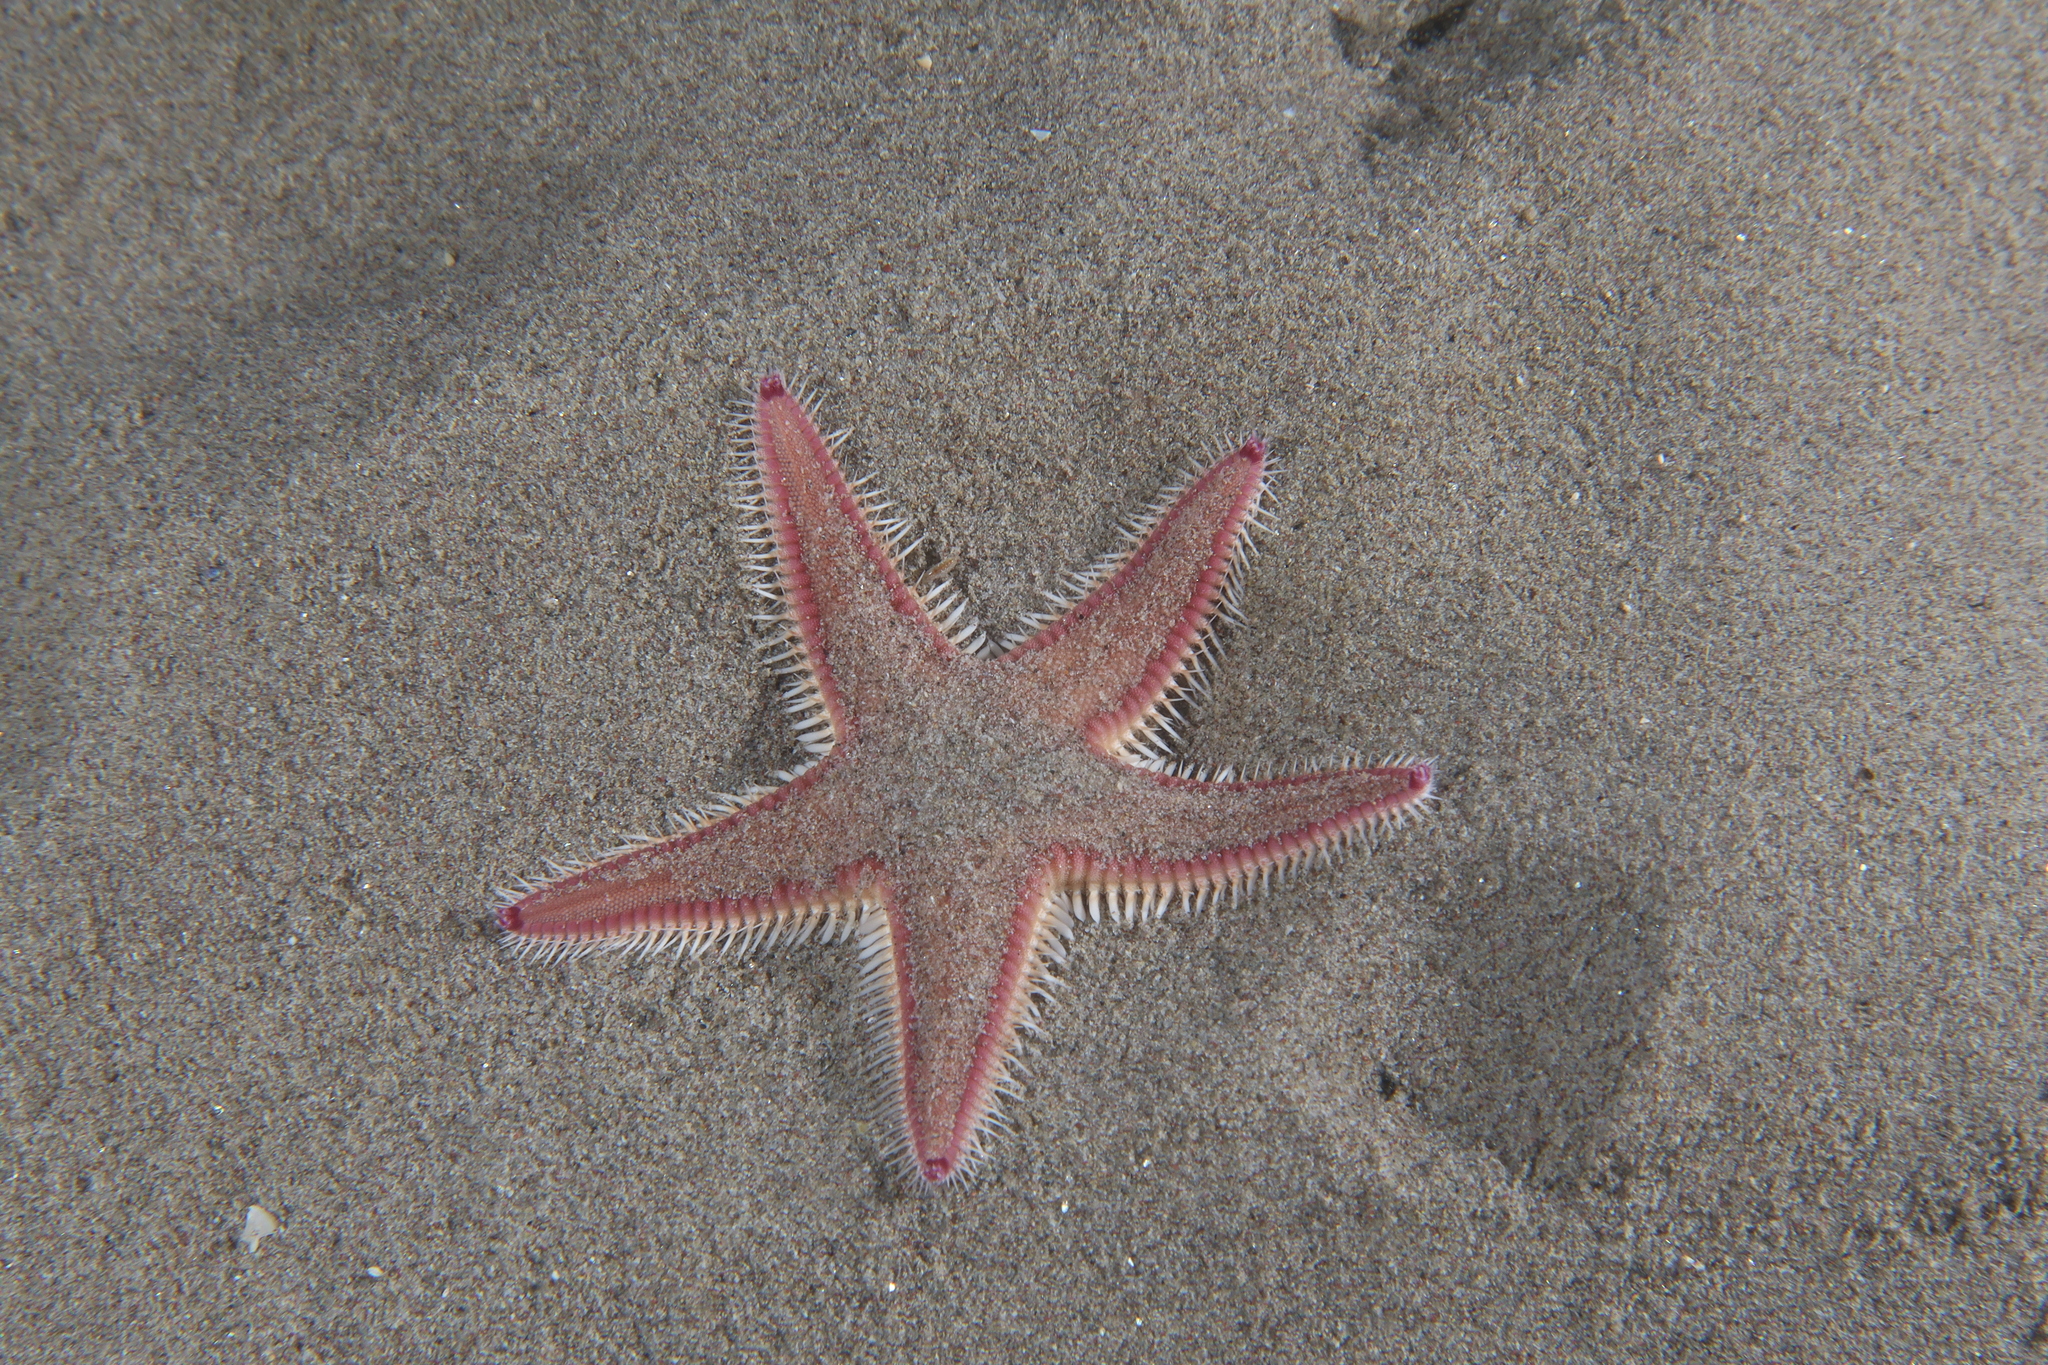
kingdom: Animalia
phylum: Echinodermata
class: Asteroidea
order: Paxillosida
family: Astropectinidae
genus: Astropecten
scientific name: Astropecten irregularis
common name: Sand star
